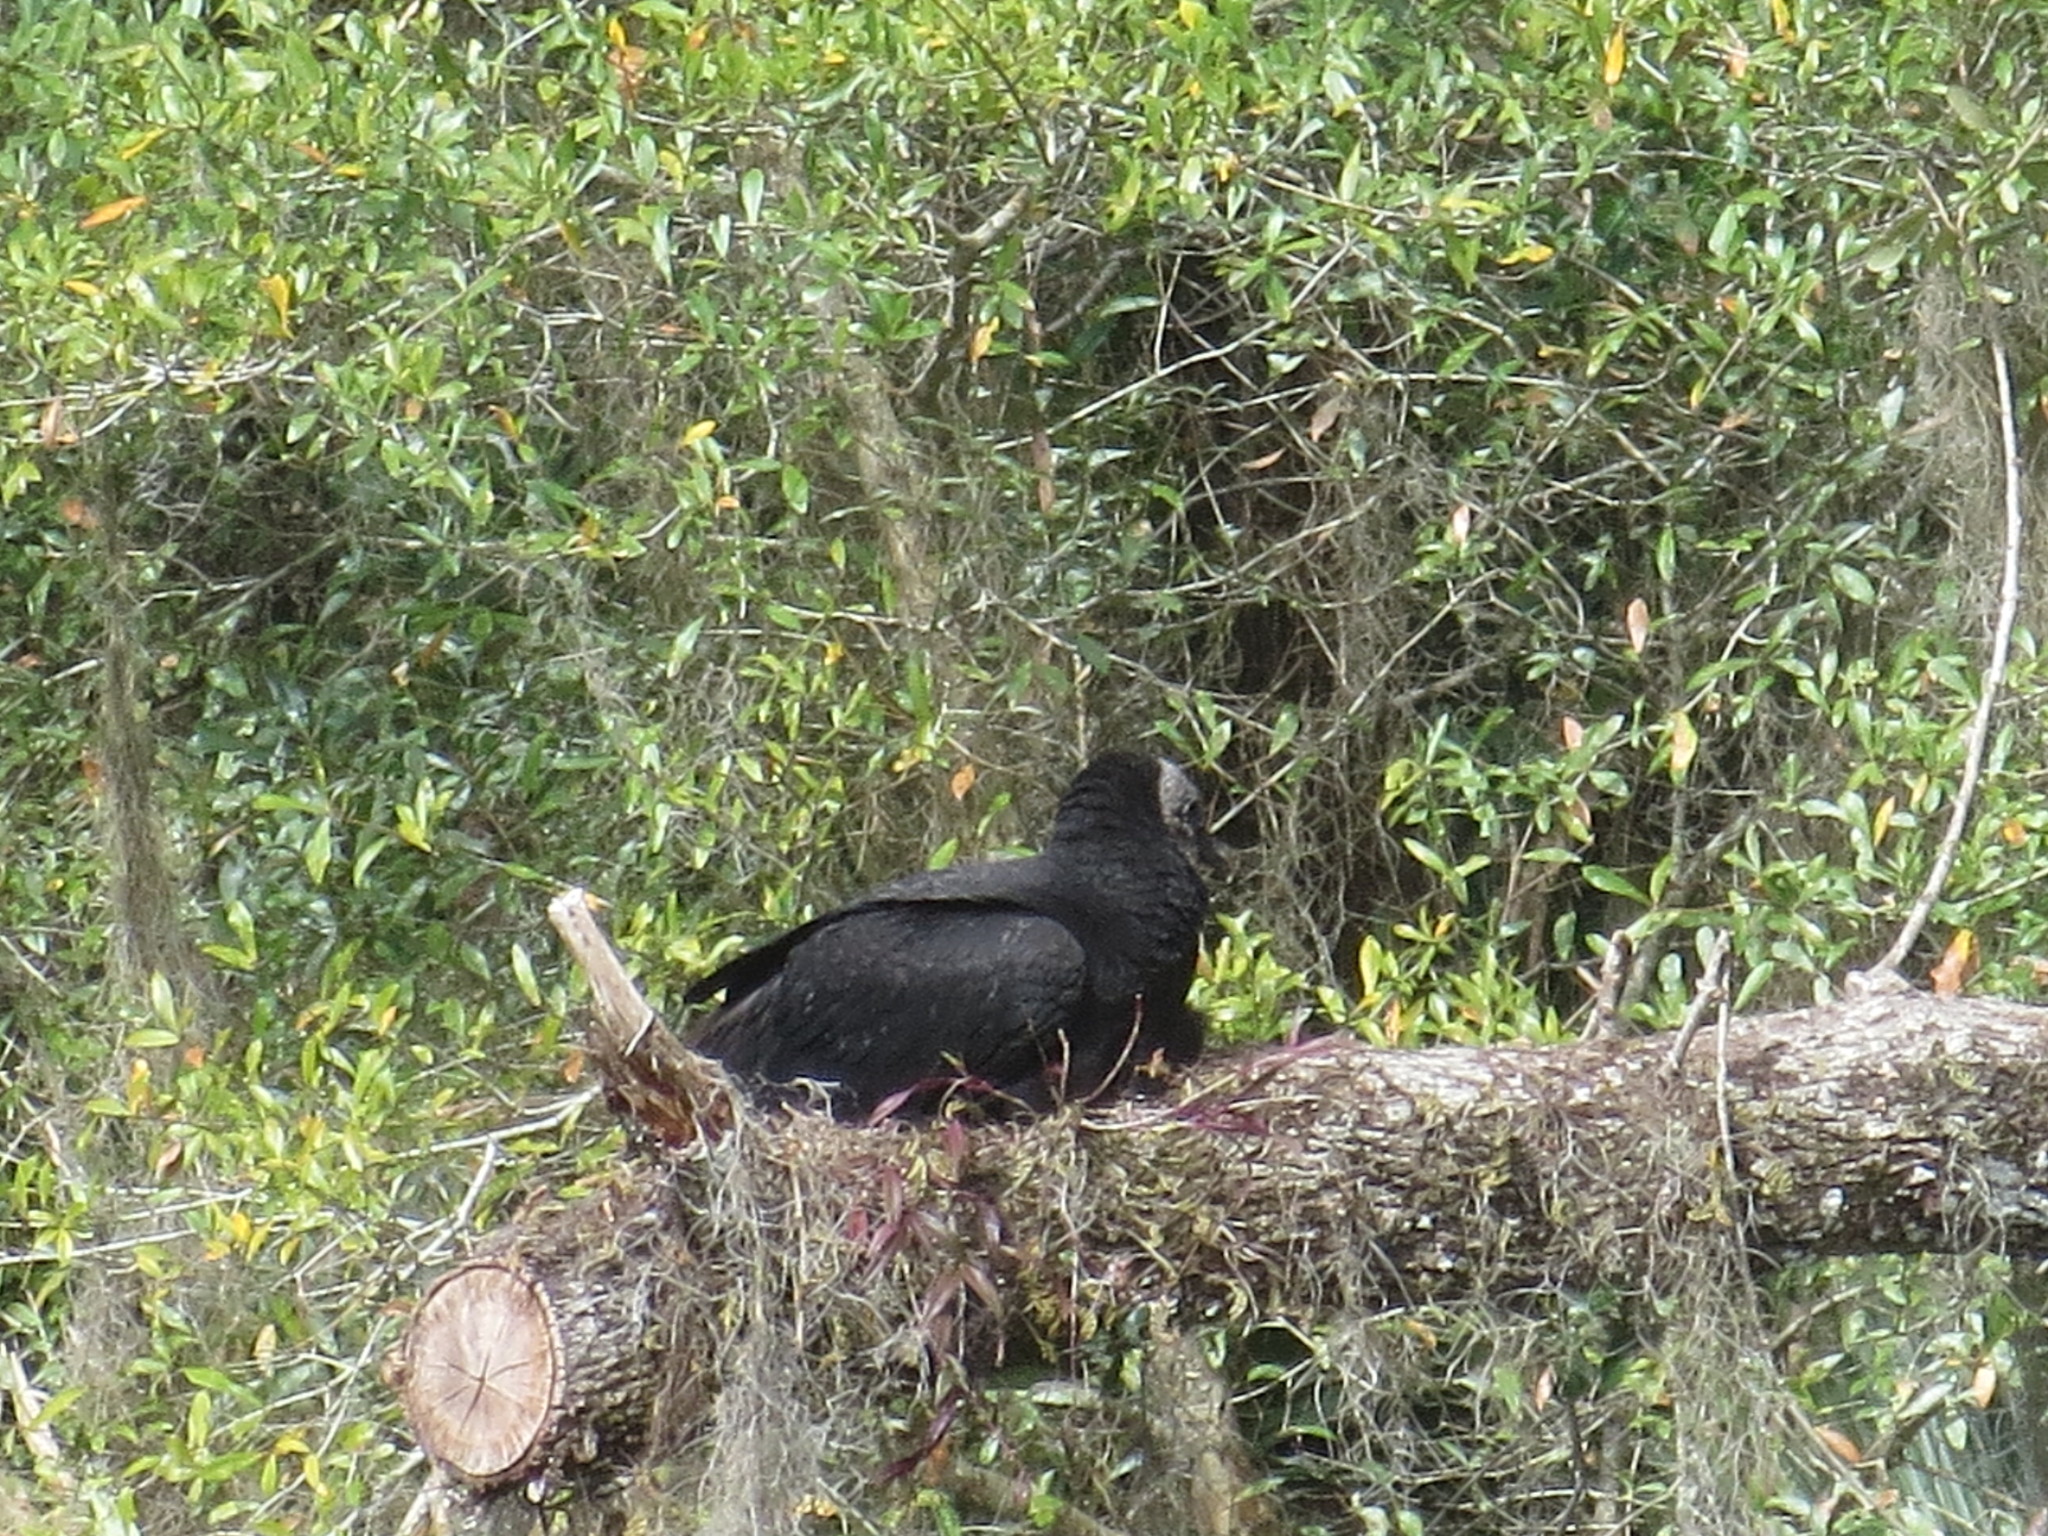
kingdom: Animalia
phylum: Chordata
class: Aves
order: Accipitriformes
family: Cathartidae
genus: Coragyps
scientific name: Coragyps atratus
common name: Black vulture
